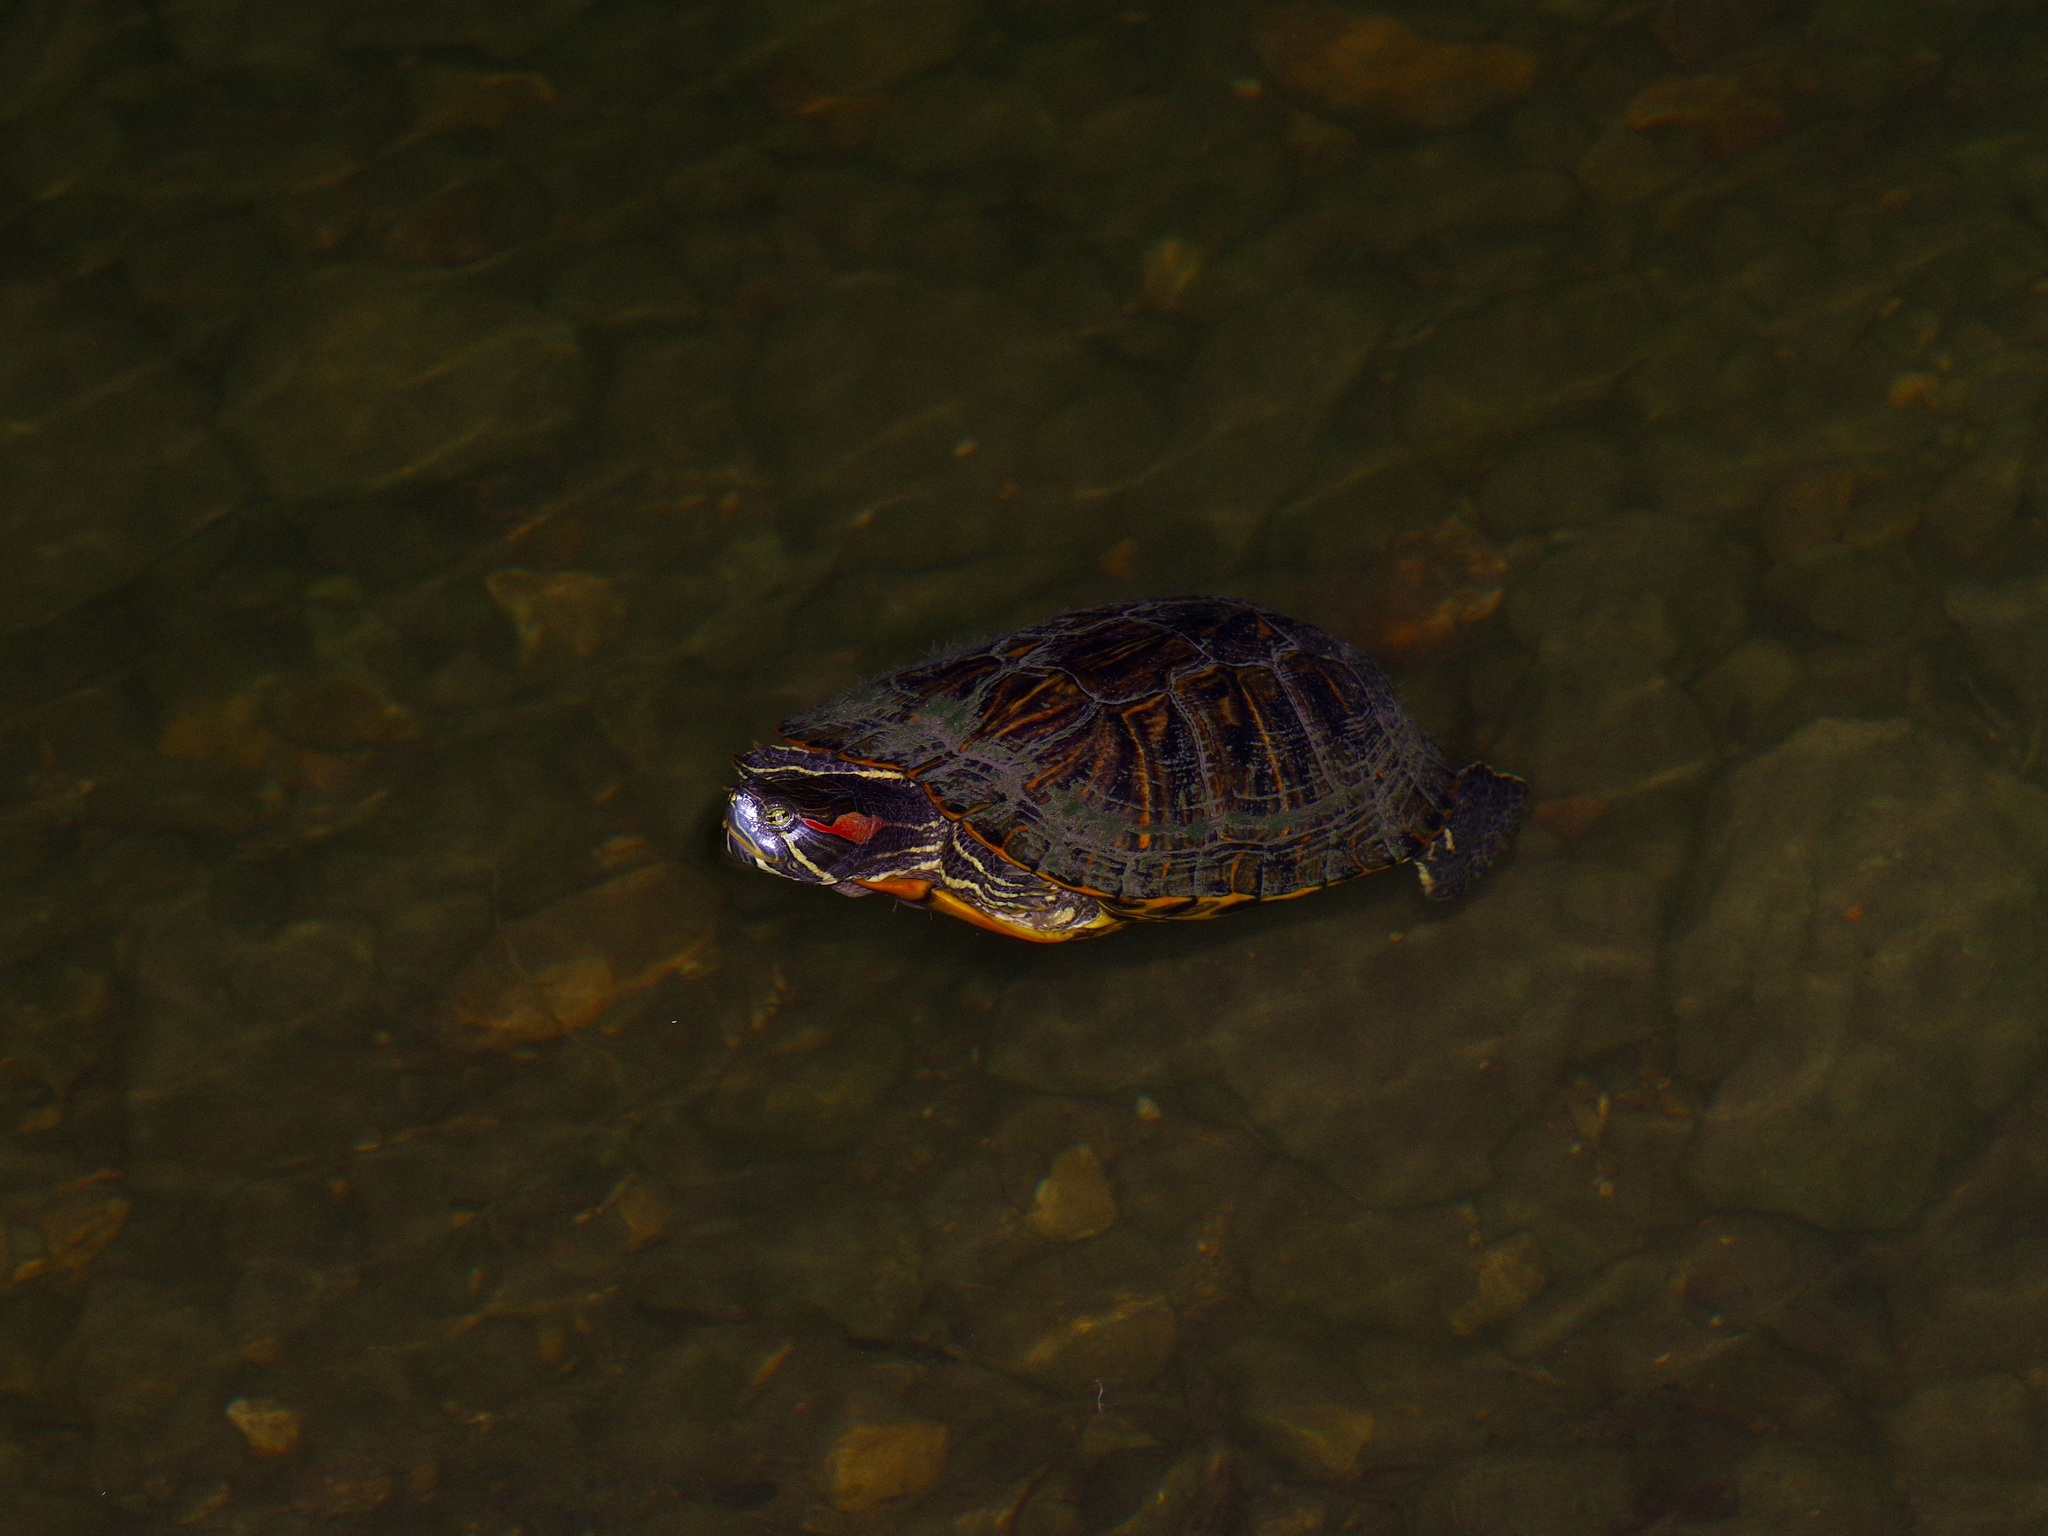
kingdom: Animalia
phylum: Chordata
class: Testudines
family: Emydidae
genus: Trachemys
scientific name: Trachemys scripta
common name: Slider
